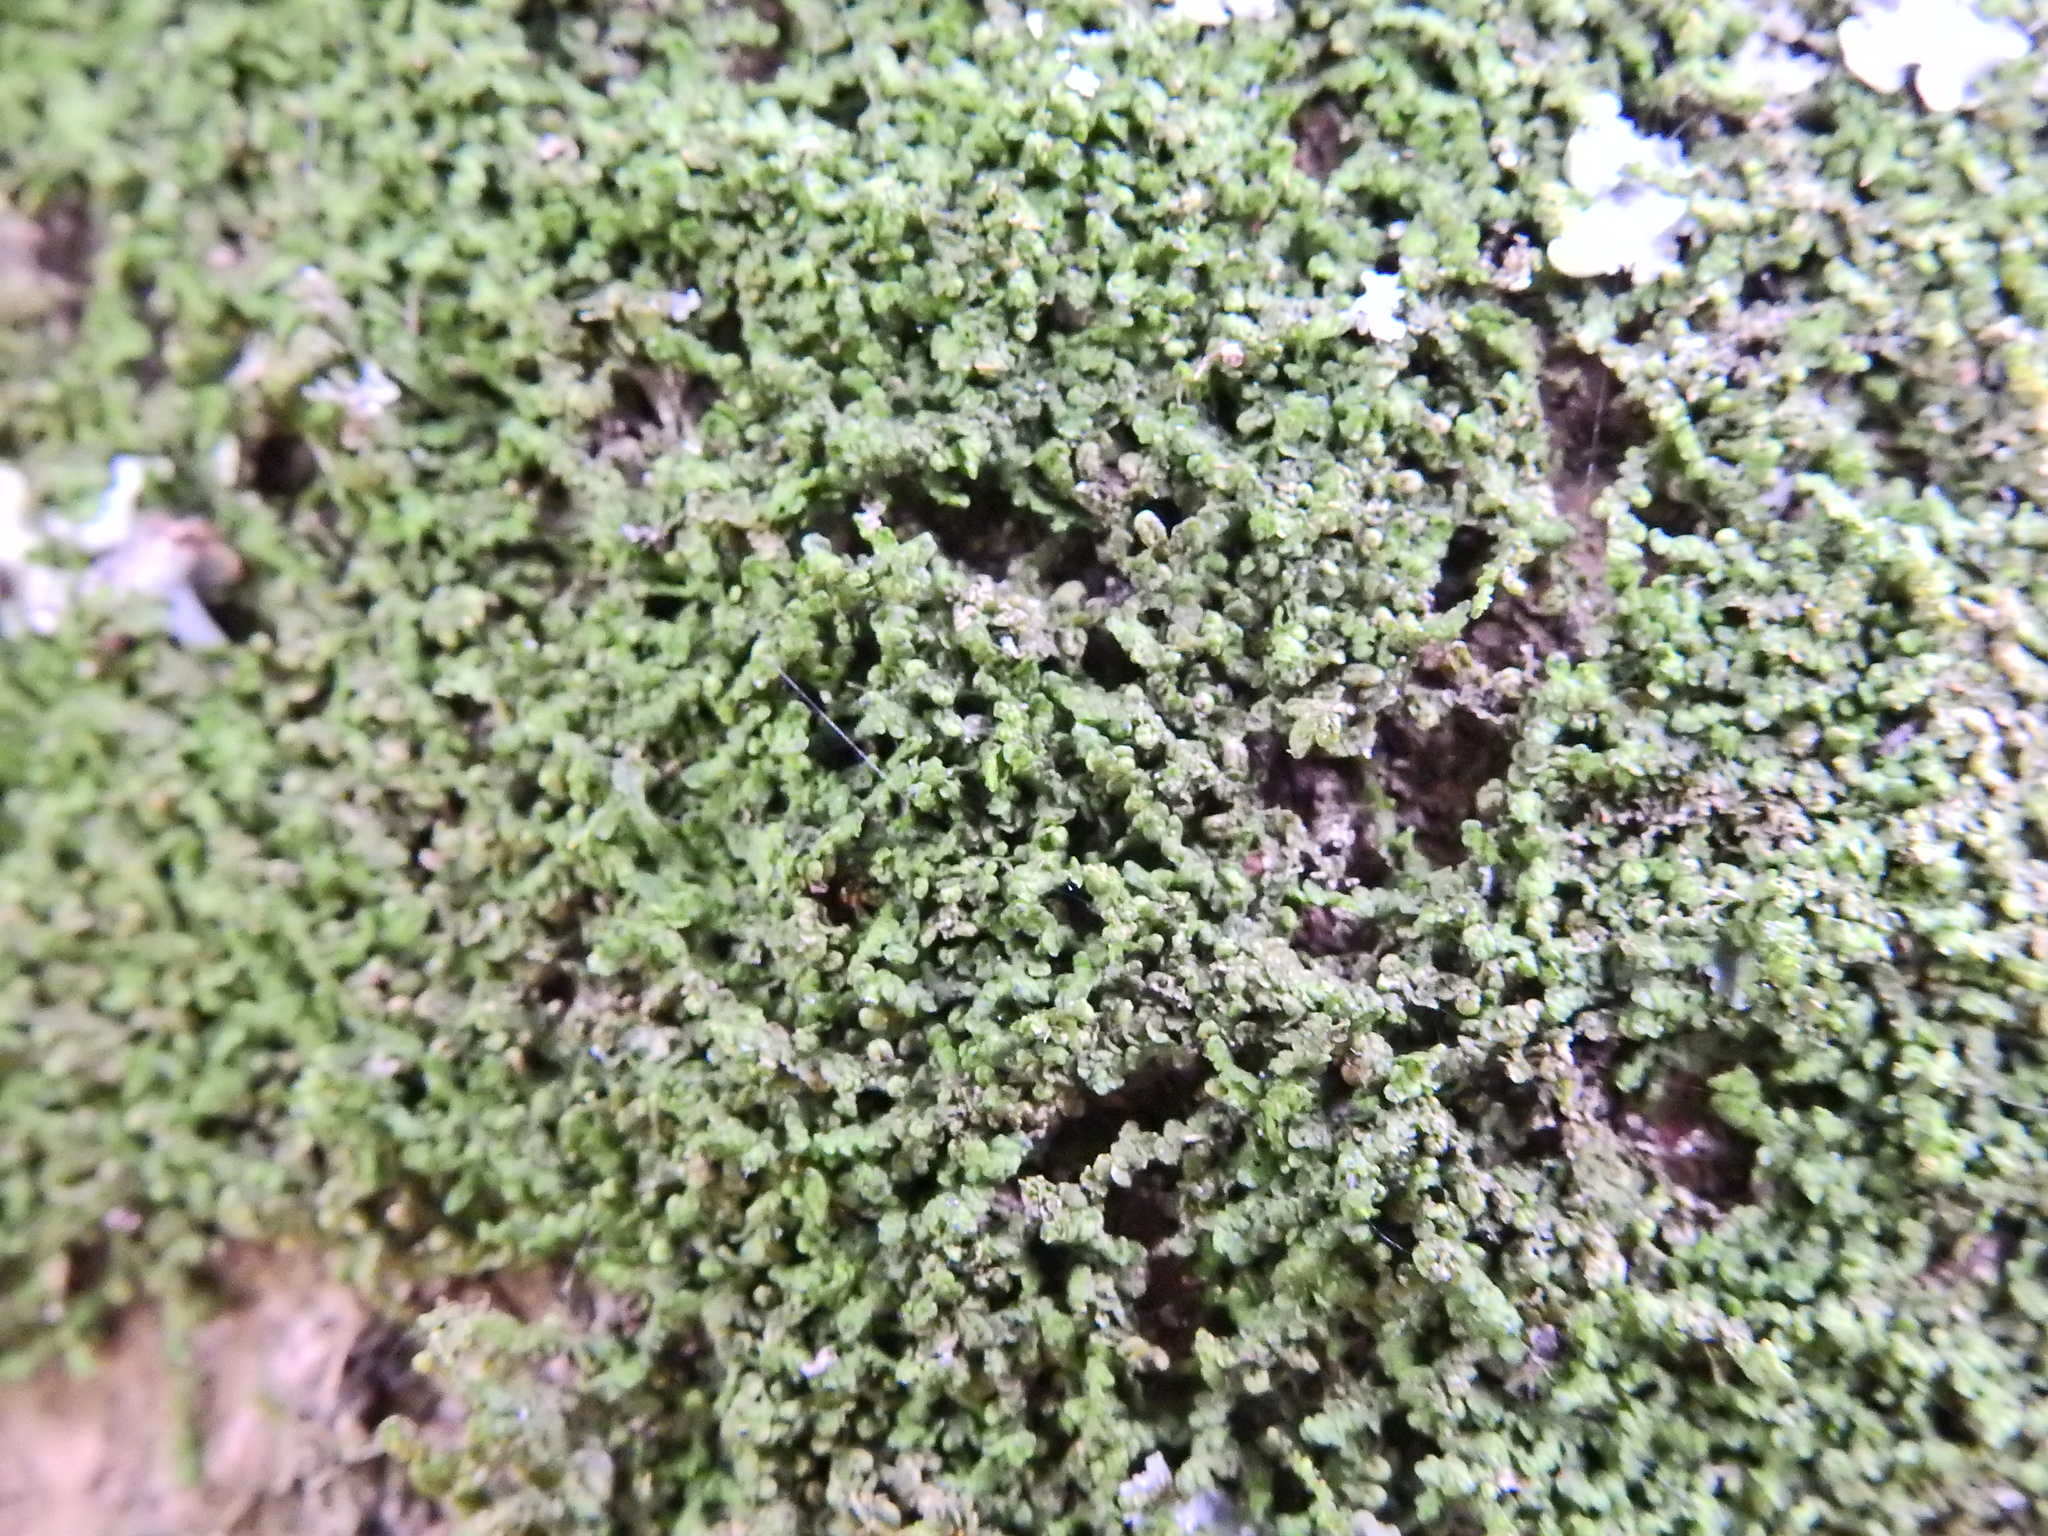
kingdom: Plantae
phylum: Marchantiophyta
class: Jungermanniopsida
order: Porellales
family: Frullaniaceae
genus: Frullania
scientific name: Frullania dilatata
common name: Dilated scalewort
